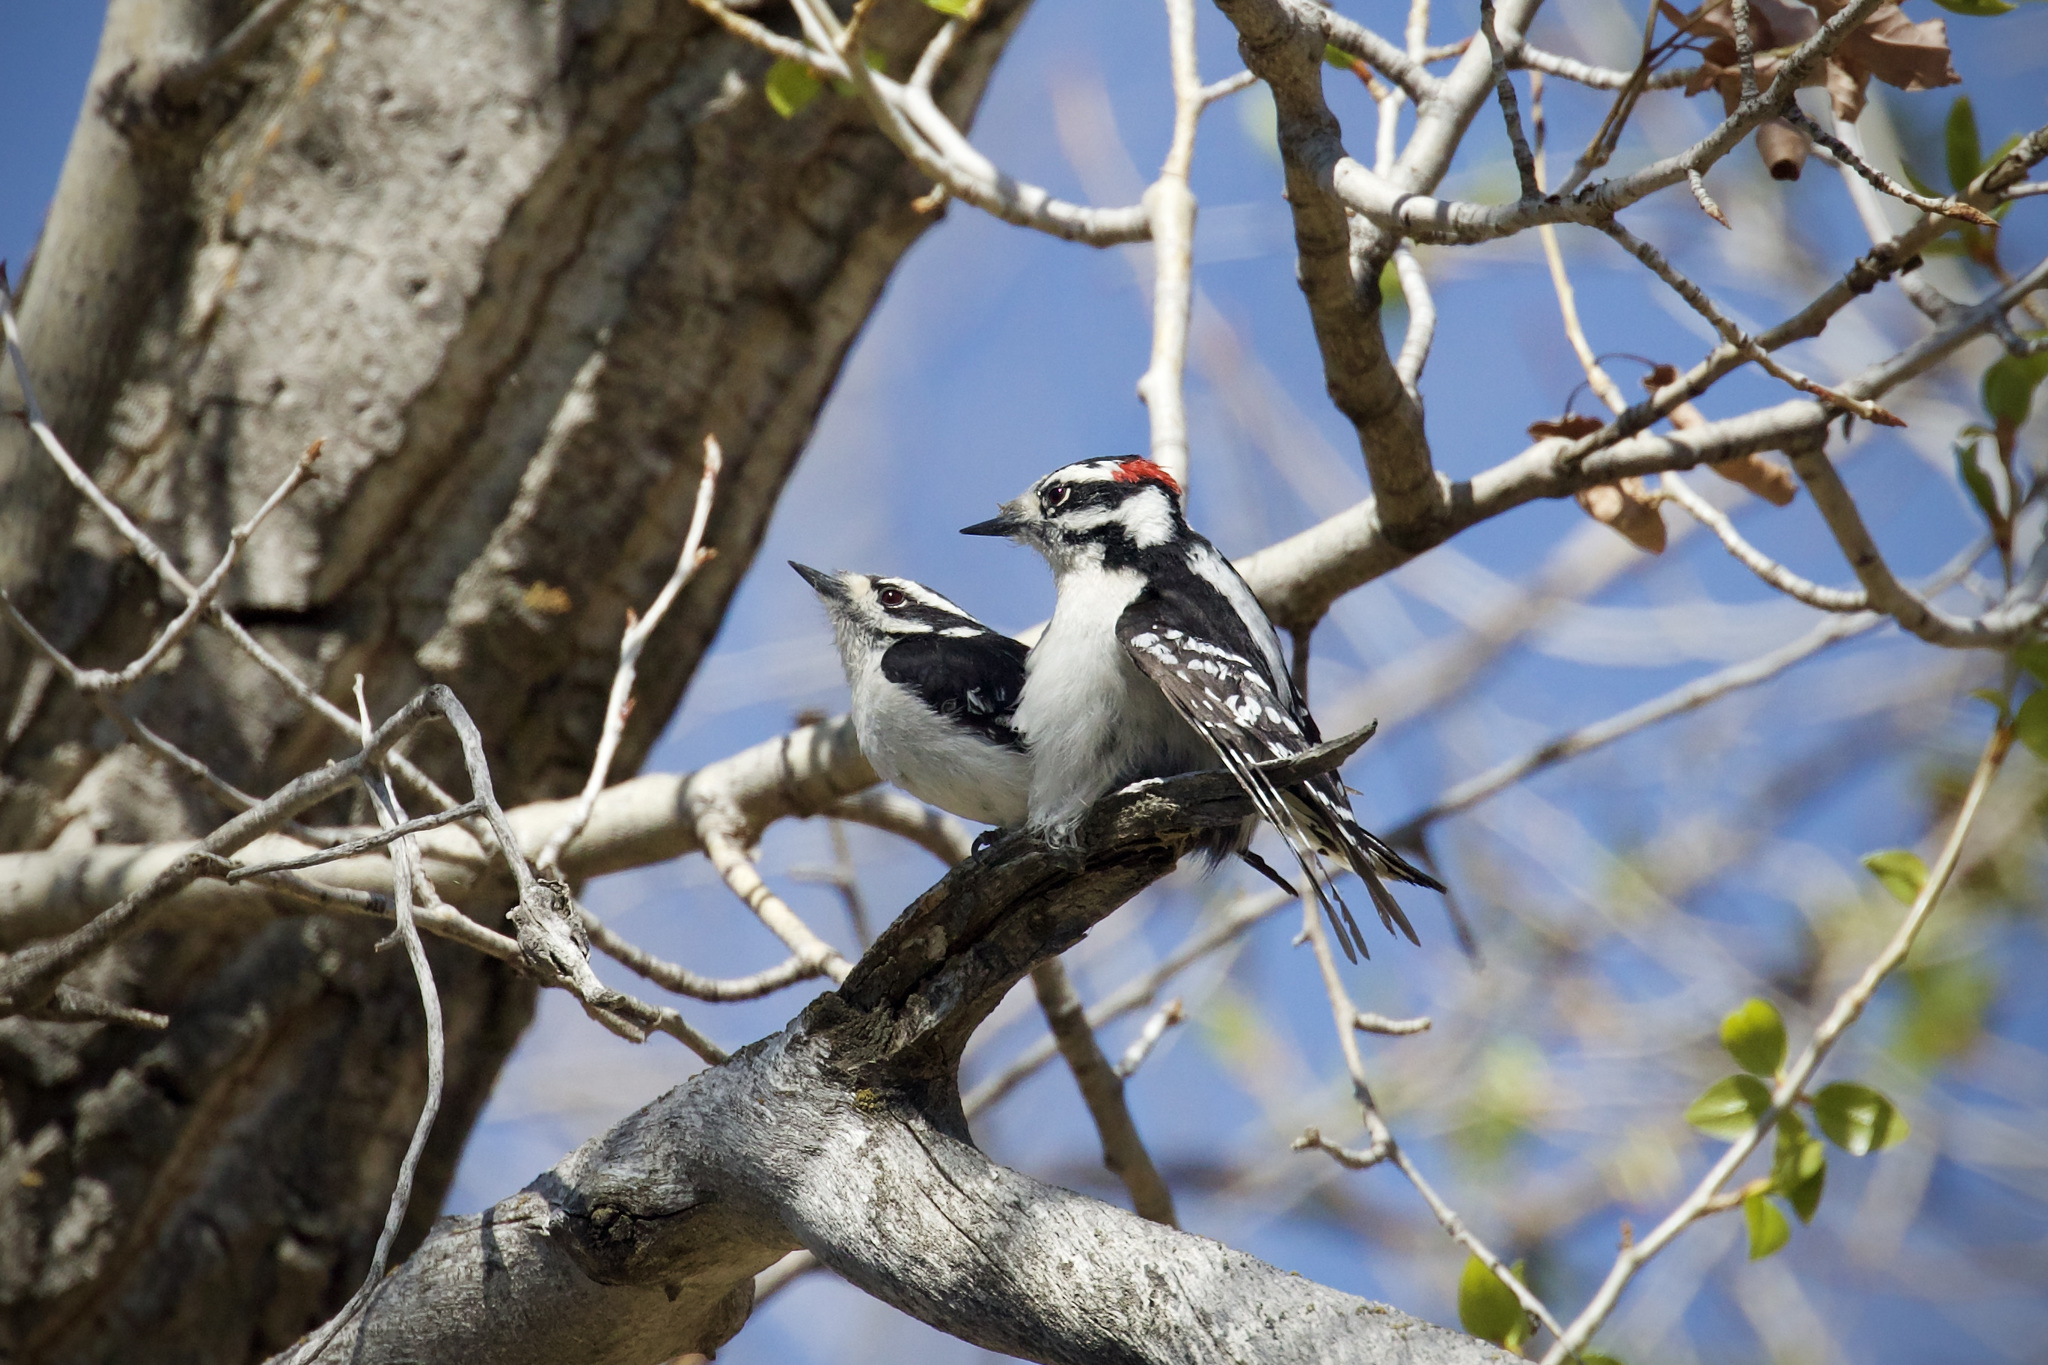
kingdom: Animalia
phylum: Chordata
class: Aves
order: Piciformes
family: Picidae
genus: Dryobates
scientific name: Dryobates pubescens
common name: Downy woodpecker
